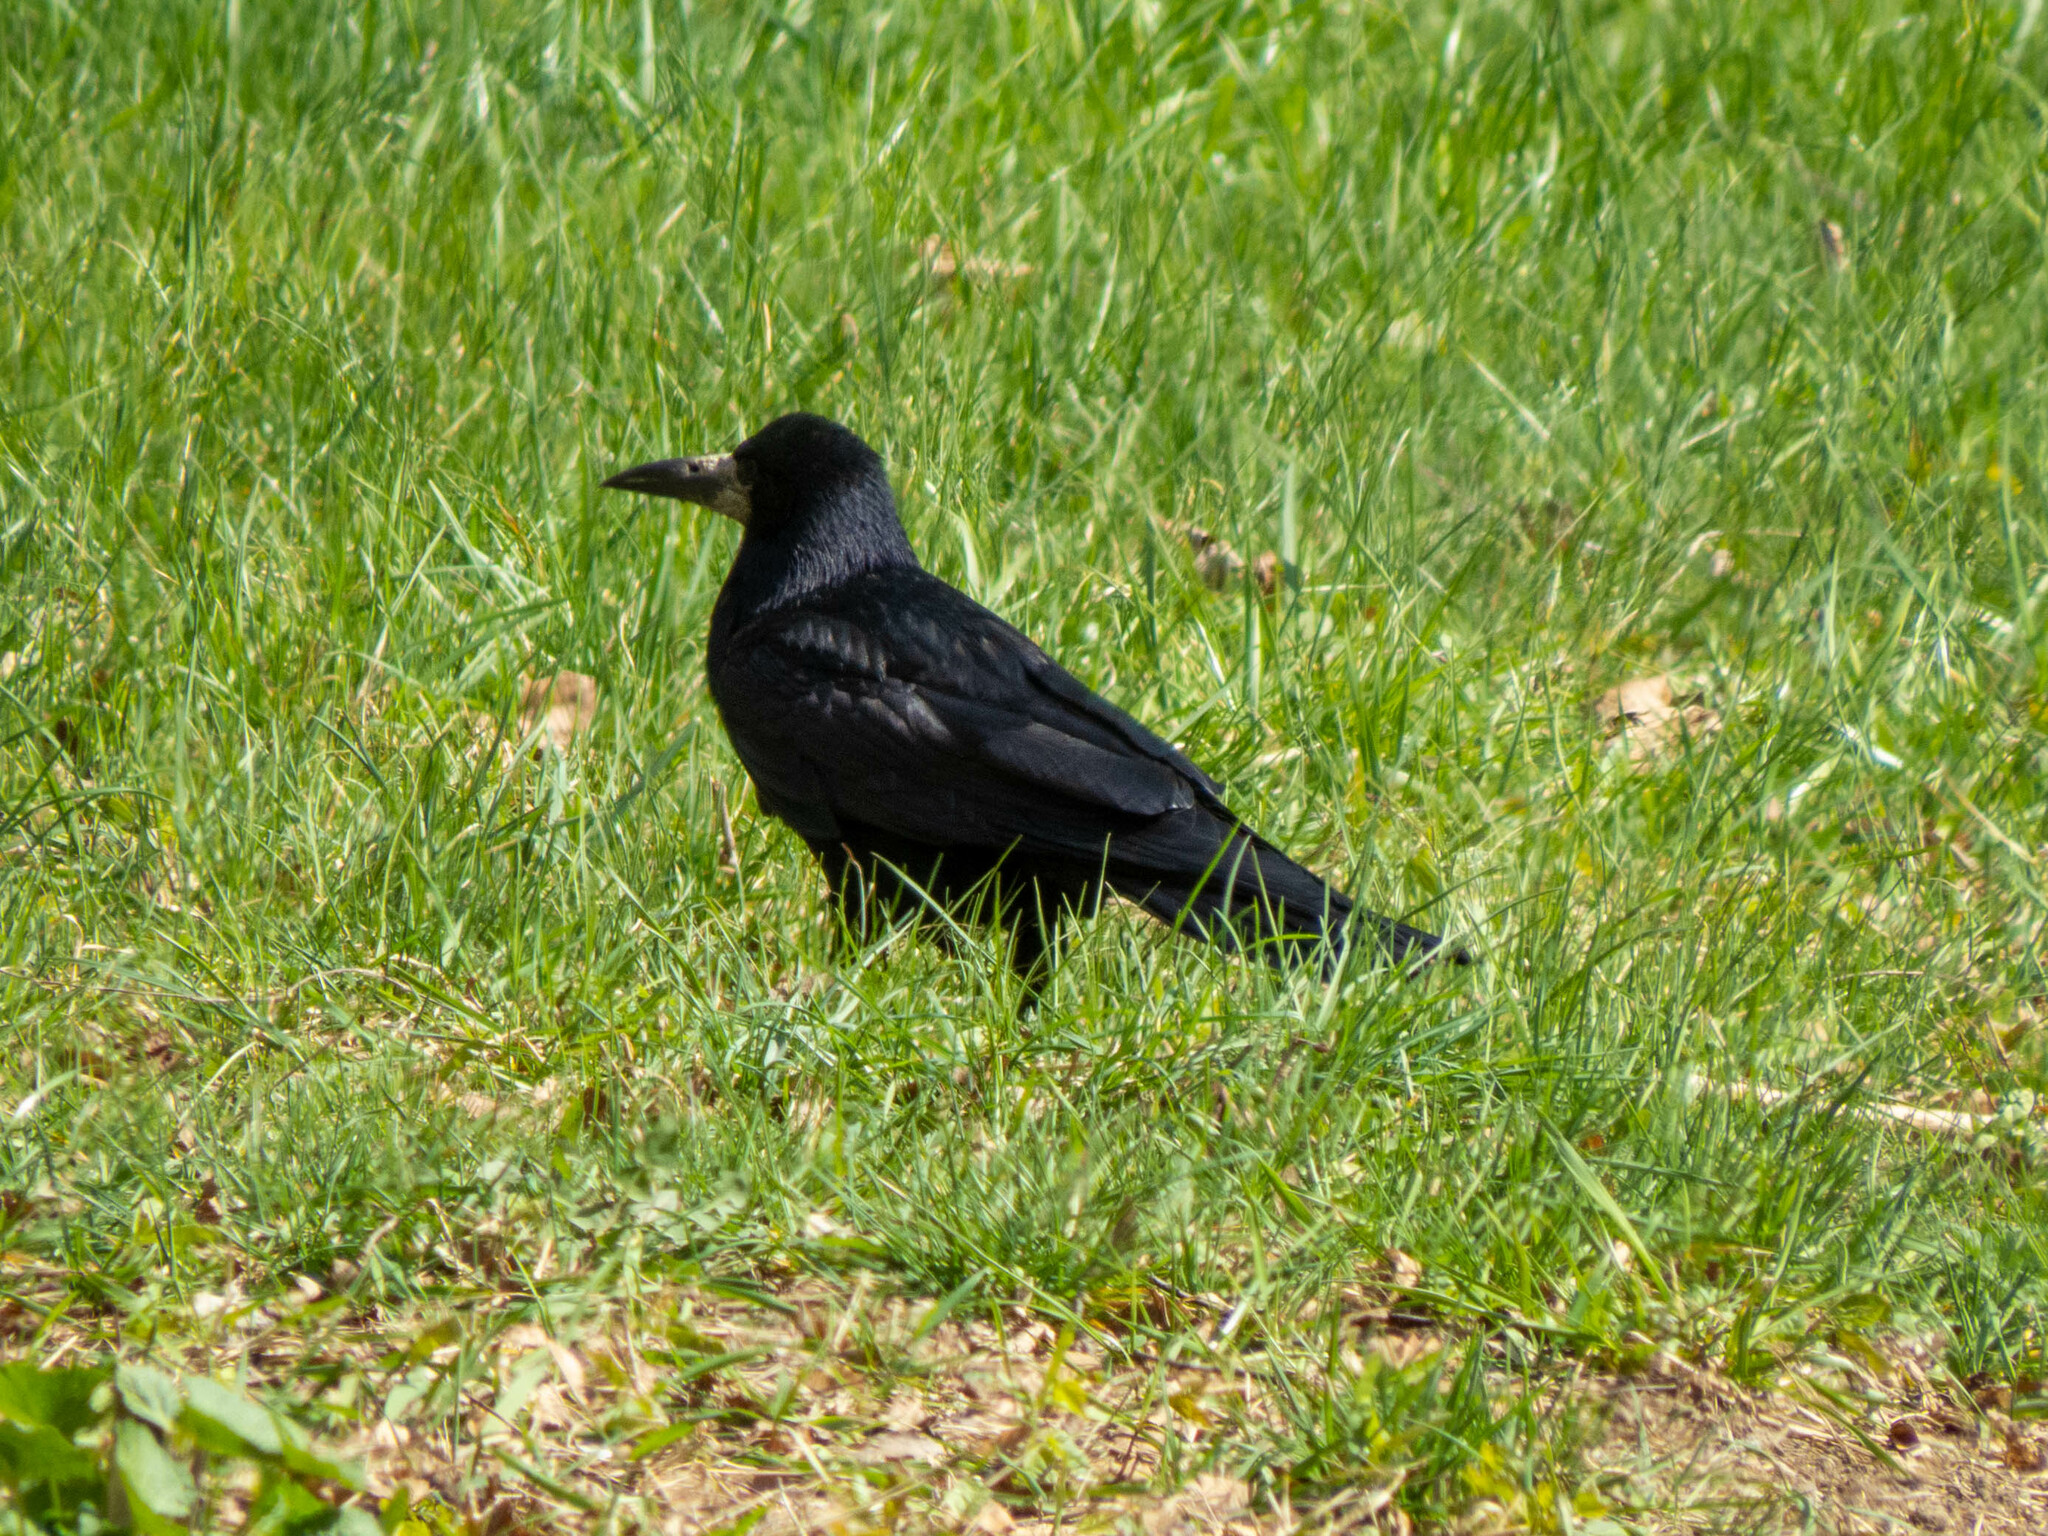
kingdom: Animalia
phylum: Chordata
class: Aves
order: Passeriformes
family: Corvidae
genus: Corvus
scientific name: Corvus frugilegus
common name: Rook
